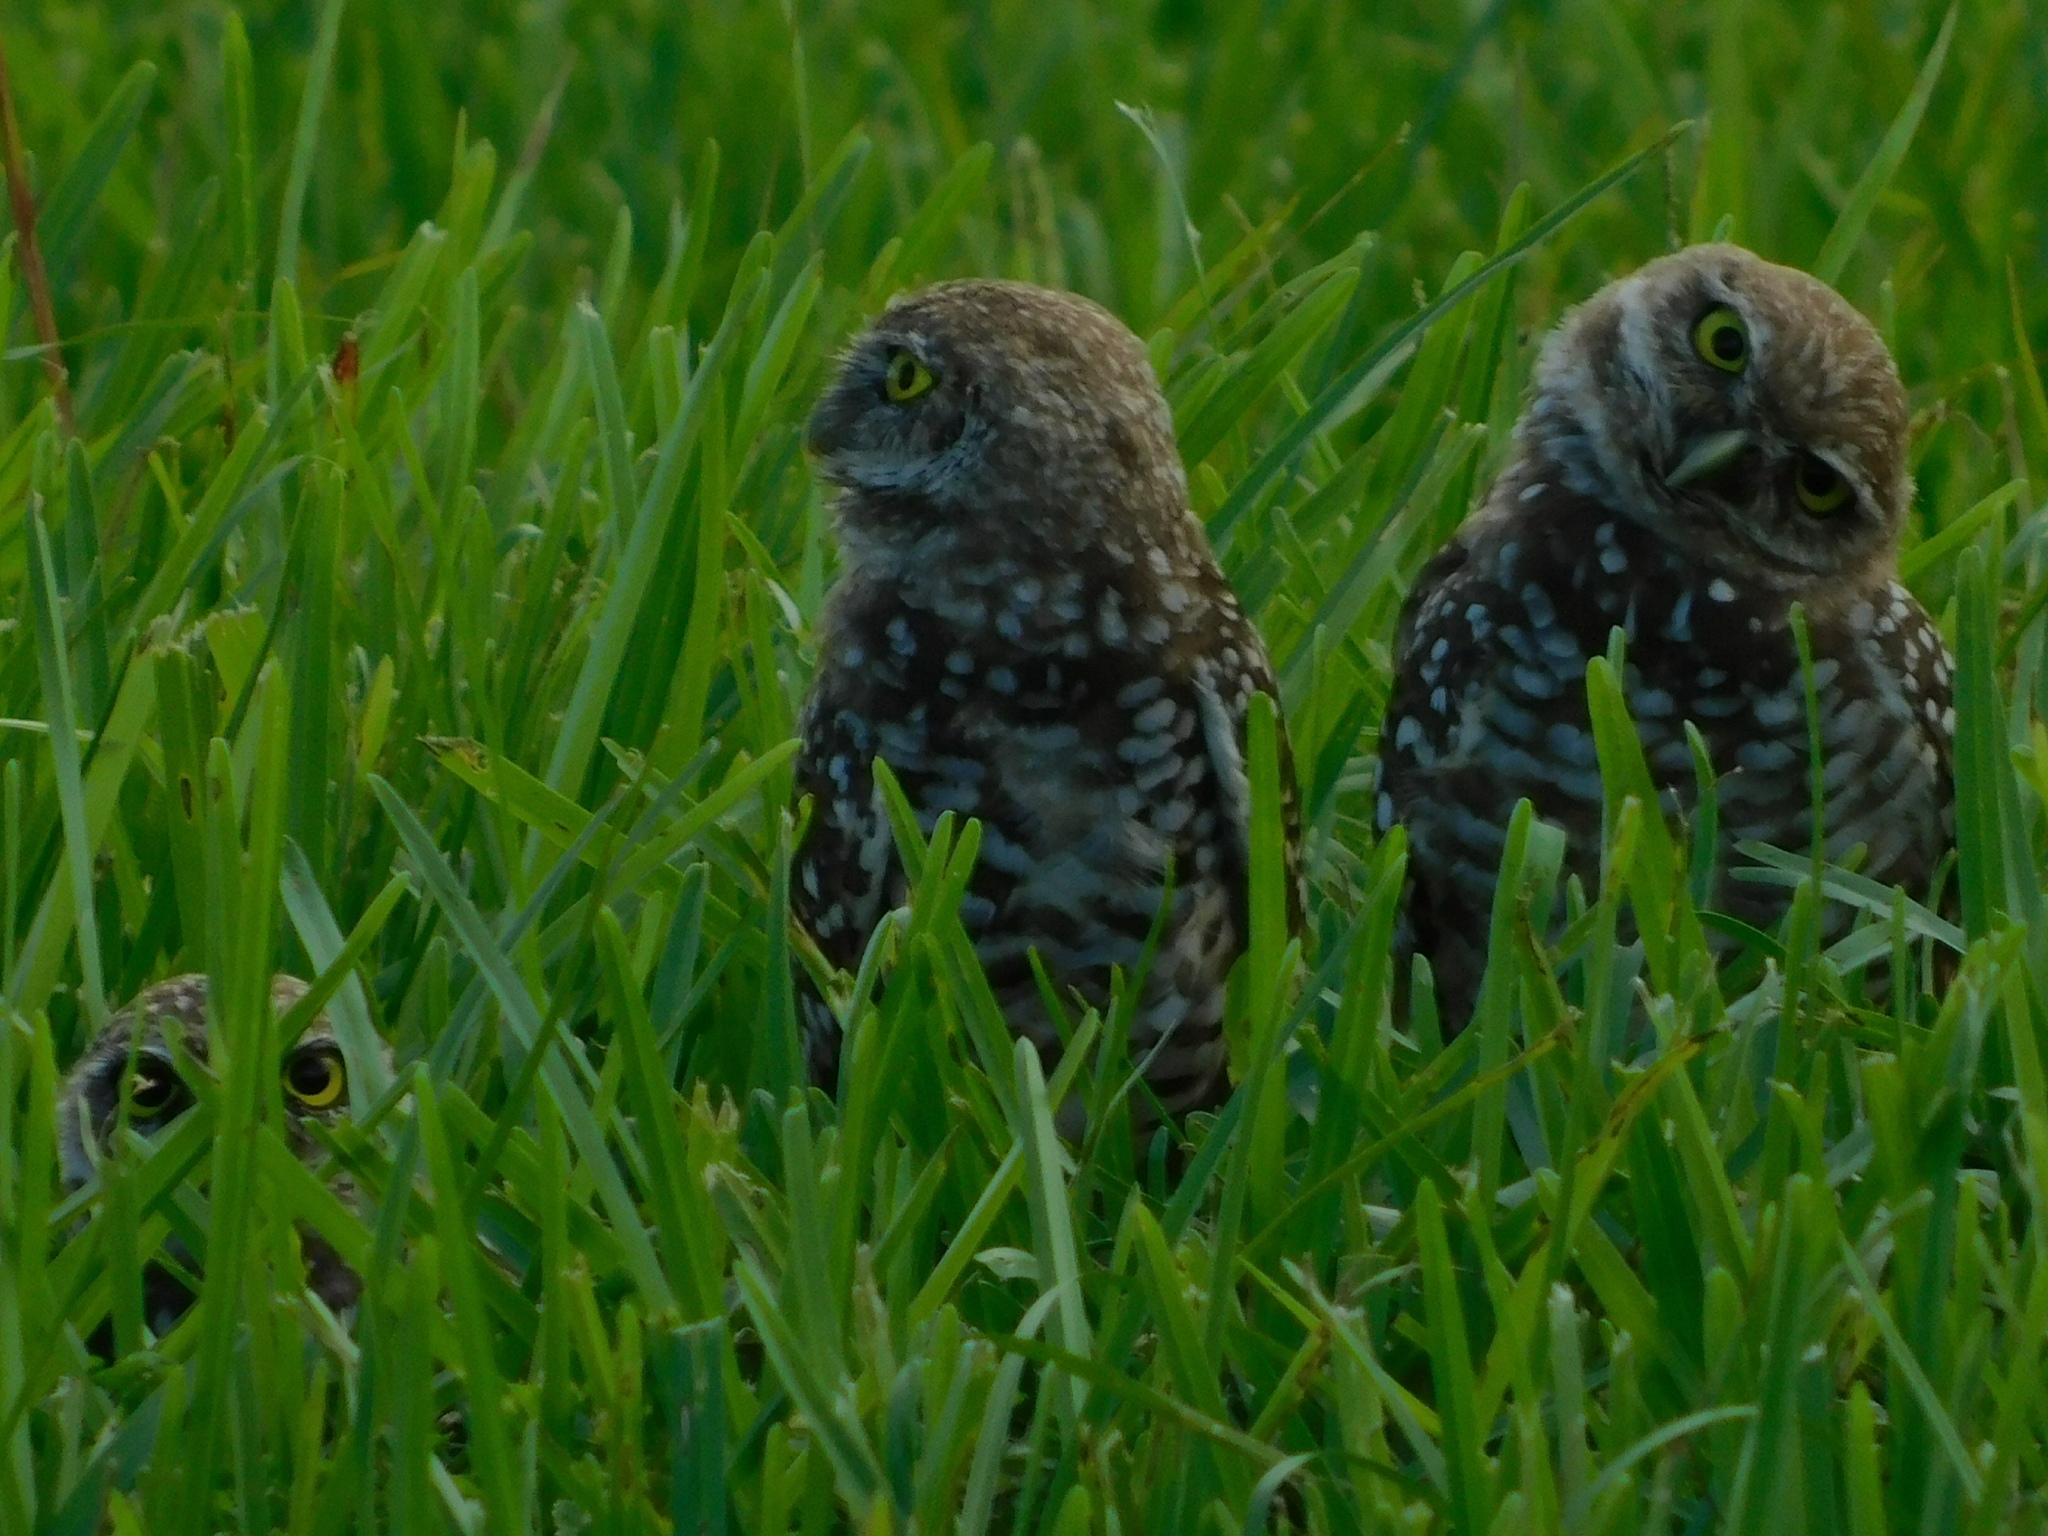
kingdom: Animalia
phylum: Chordata
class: Aves
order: Strigiformes
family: Strigidae
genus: Athene
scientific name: Athene cunicularia
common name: Burrowing owl
